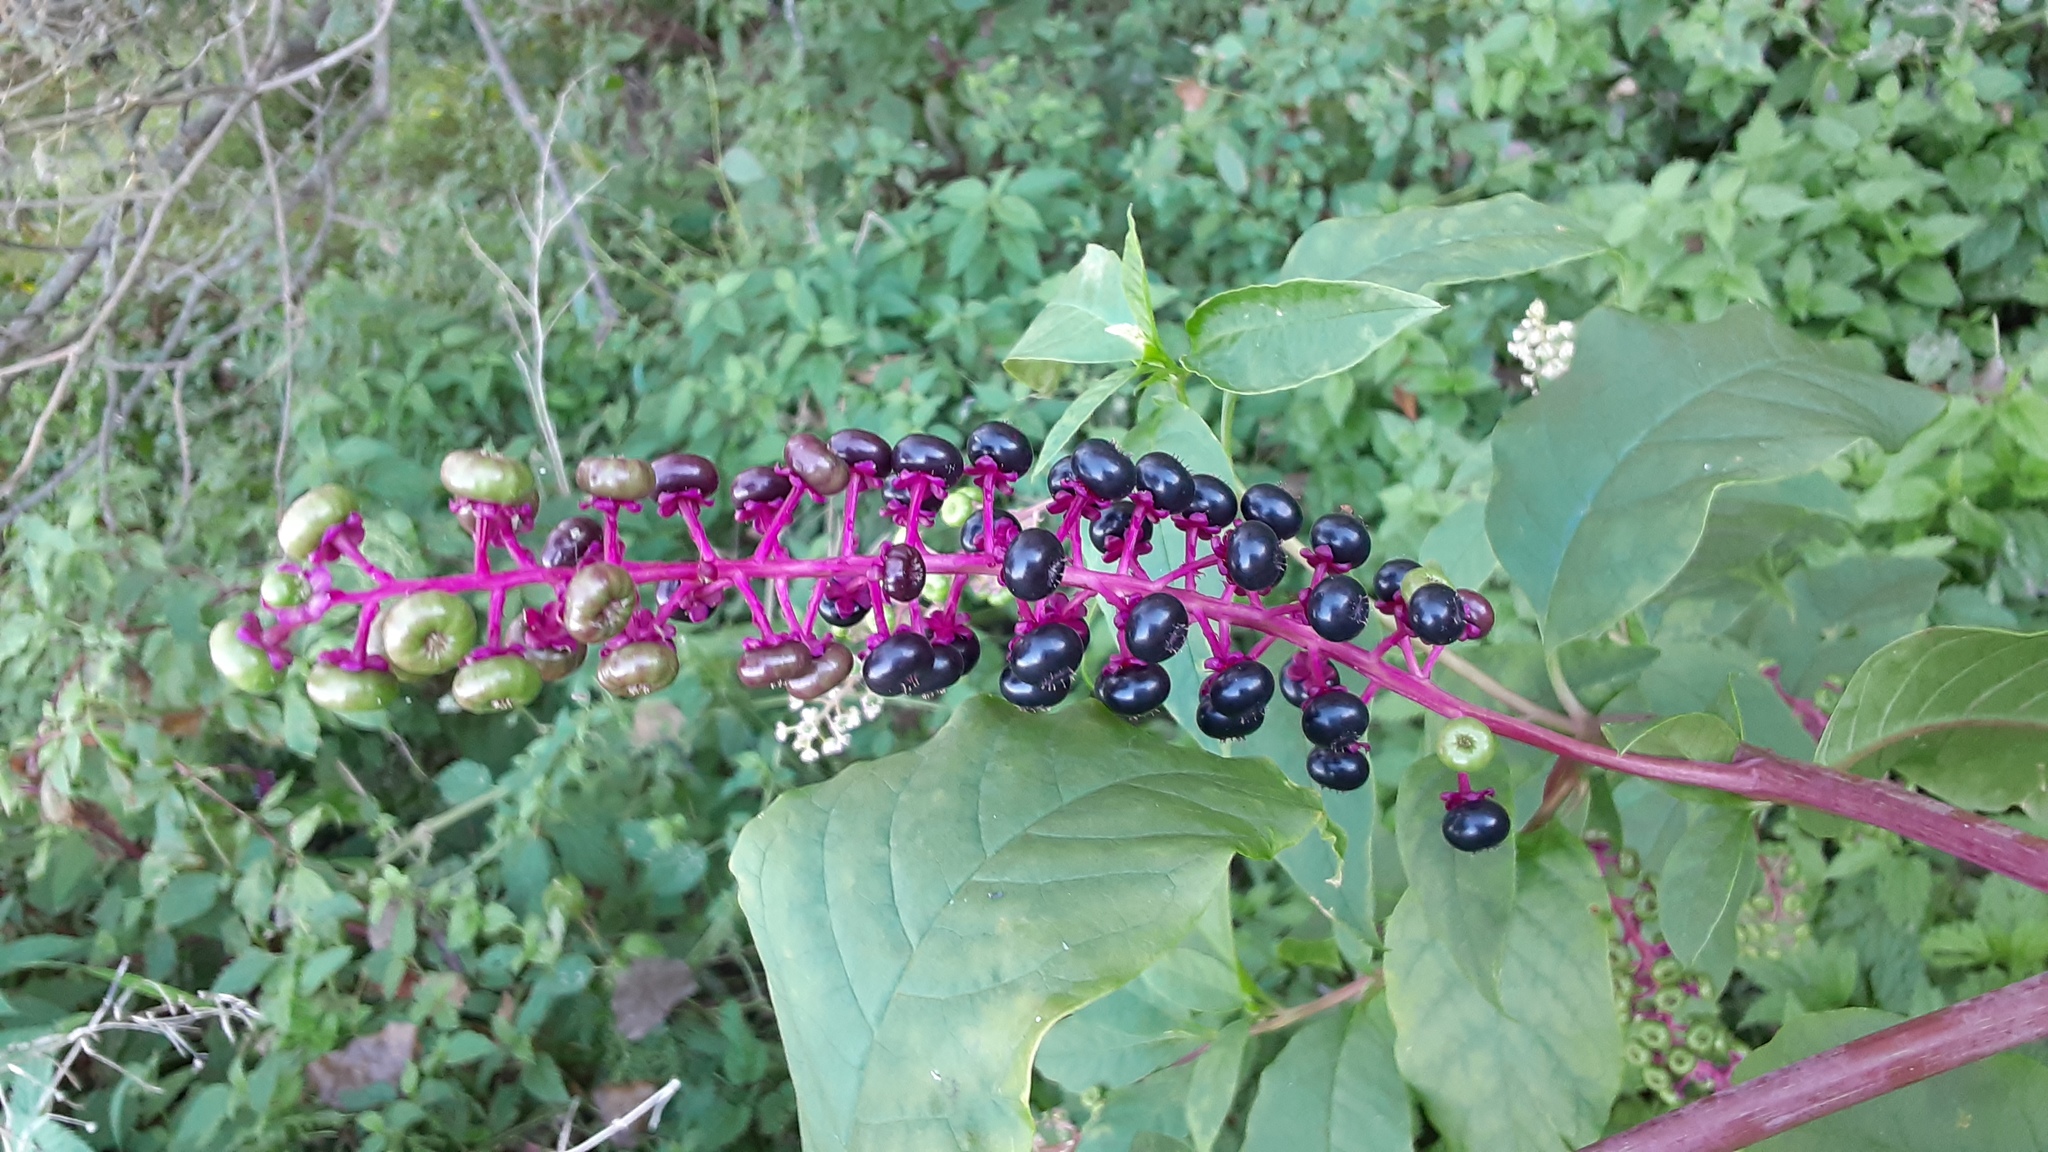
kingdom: Plantae
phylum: Tracheophyta
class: Magnoliopsida
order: Caryophyllales
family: Phytolaccaceae
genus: Phytolacca
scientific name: Phytolacca americana
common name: American pokeweed
